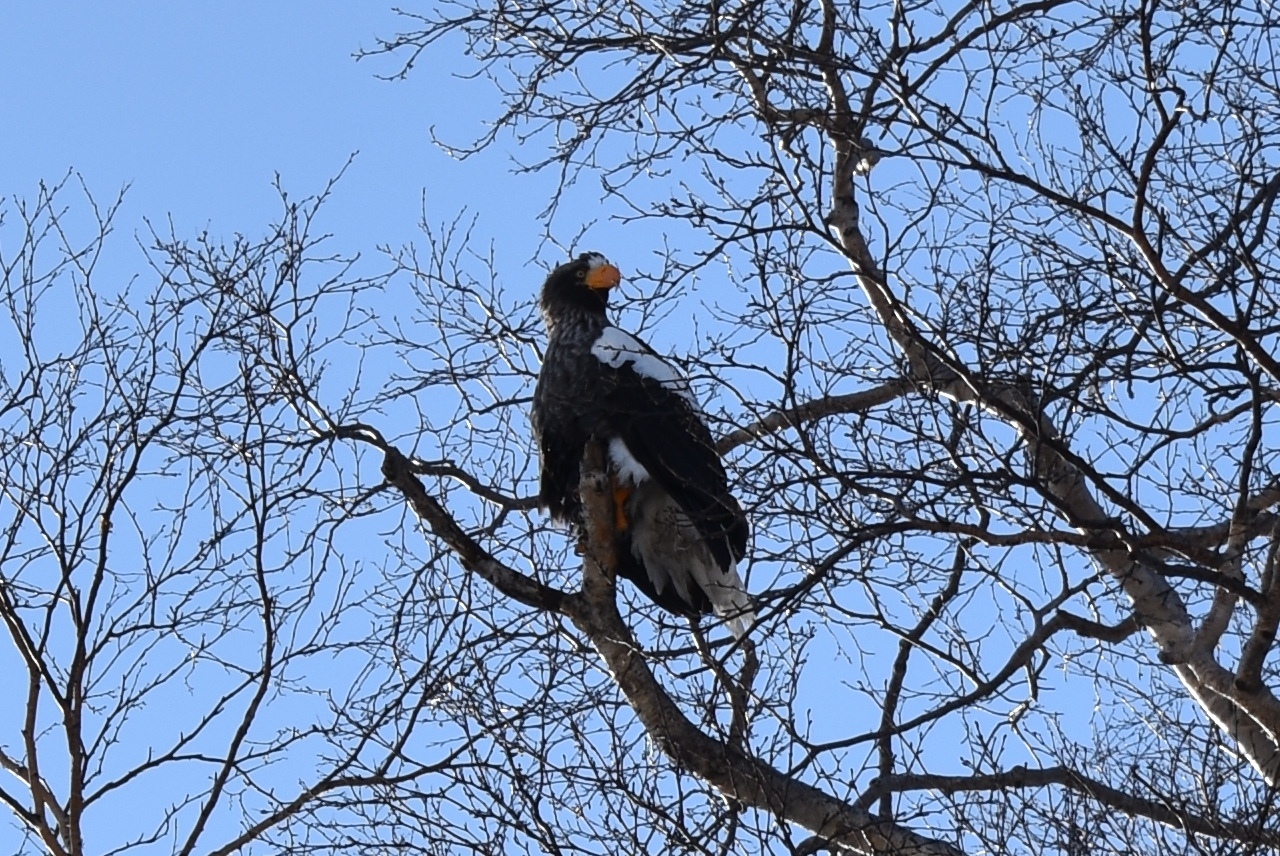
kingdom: Animalia
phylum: Chordata
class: Aves
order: Accipitriformes
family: Accipitridae
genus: Haliaeetus
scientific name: Haliaeetus pelagicus
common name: Steller's sea eagle
